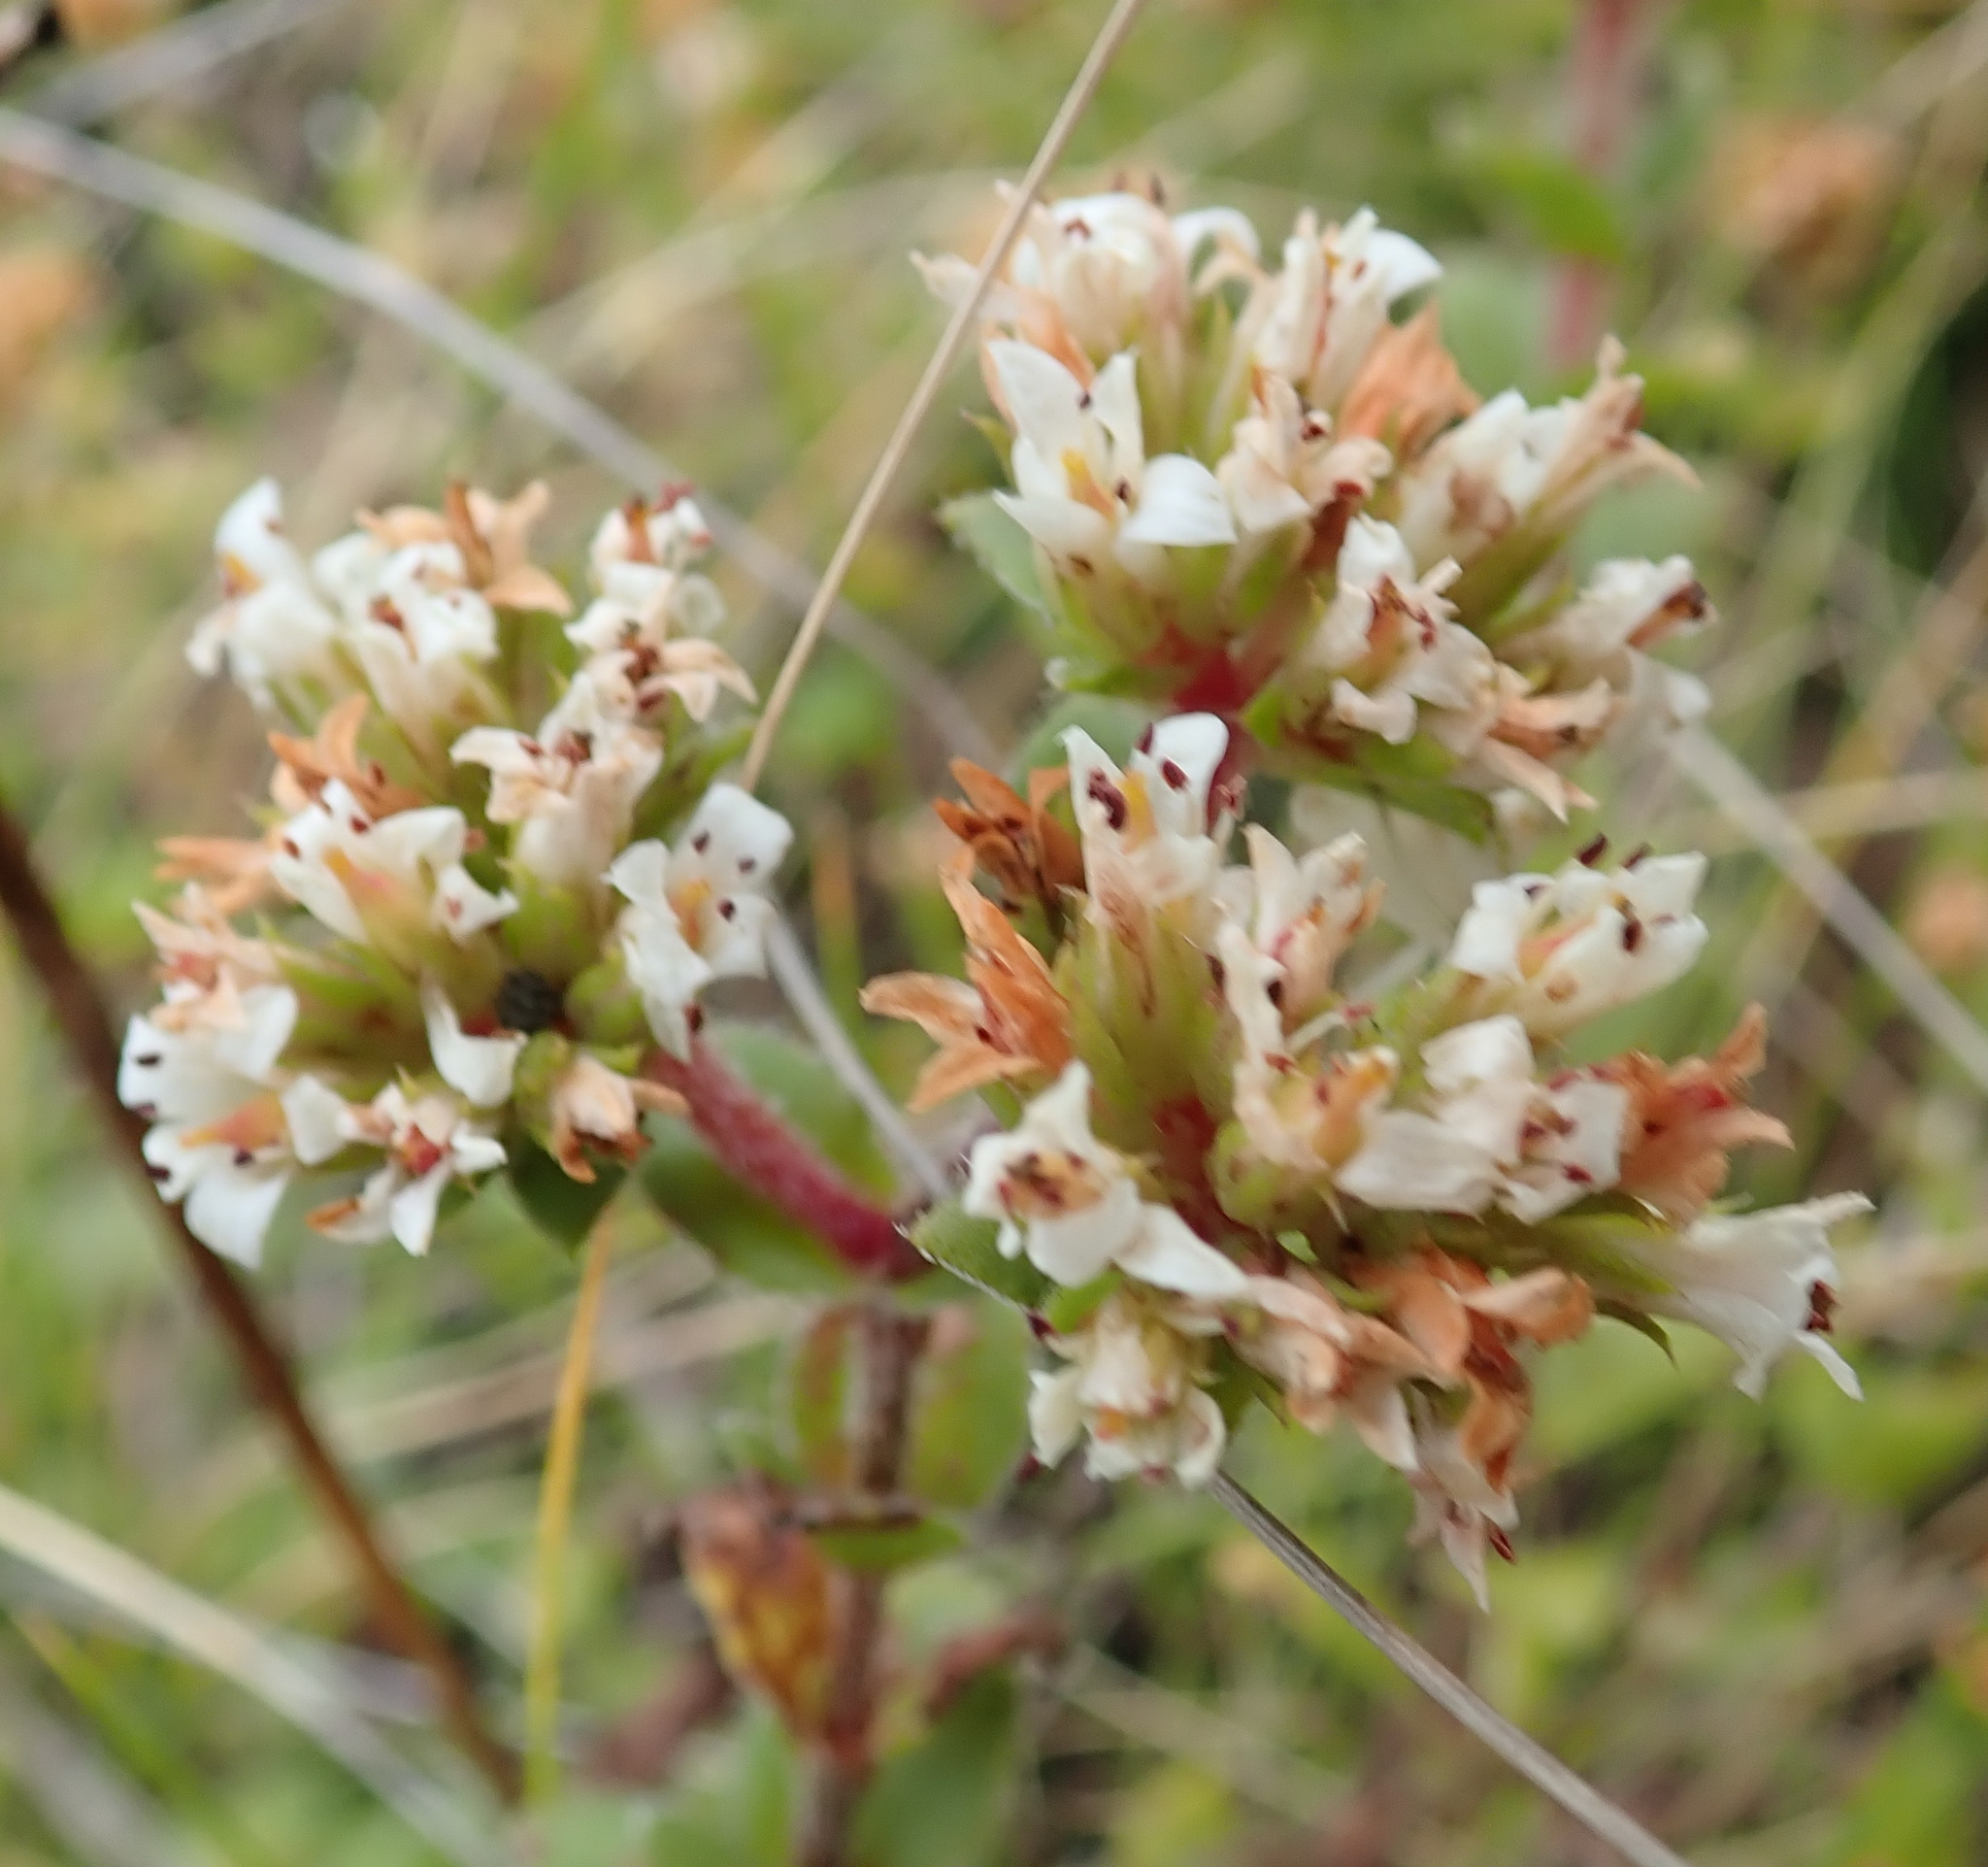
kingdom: Plantae
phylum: Tracheophyta
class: Magnoliopsida
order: Saxifragales
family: Crassulaceae
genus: Crassula
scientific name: Crassula obovata
